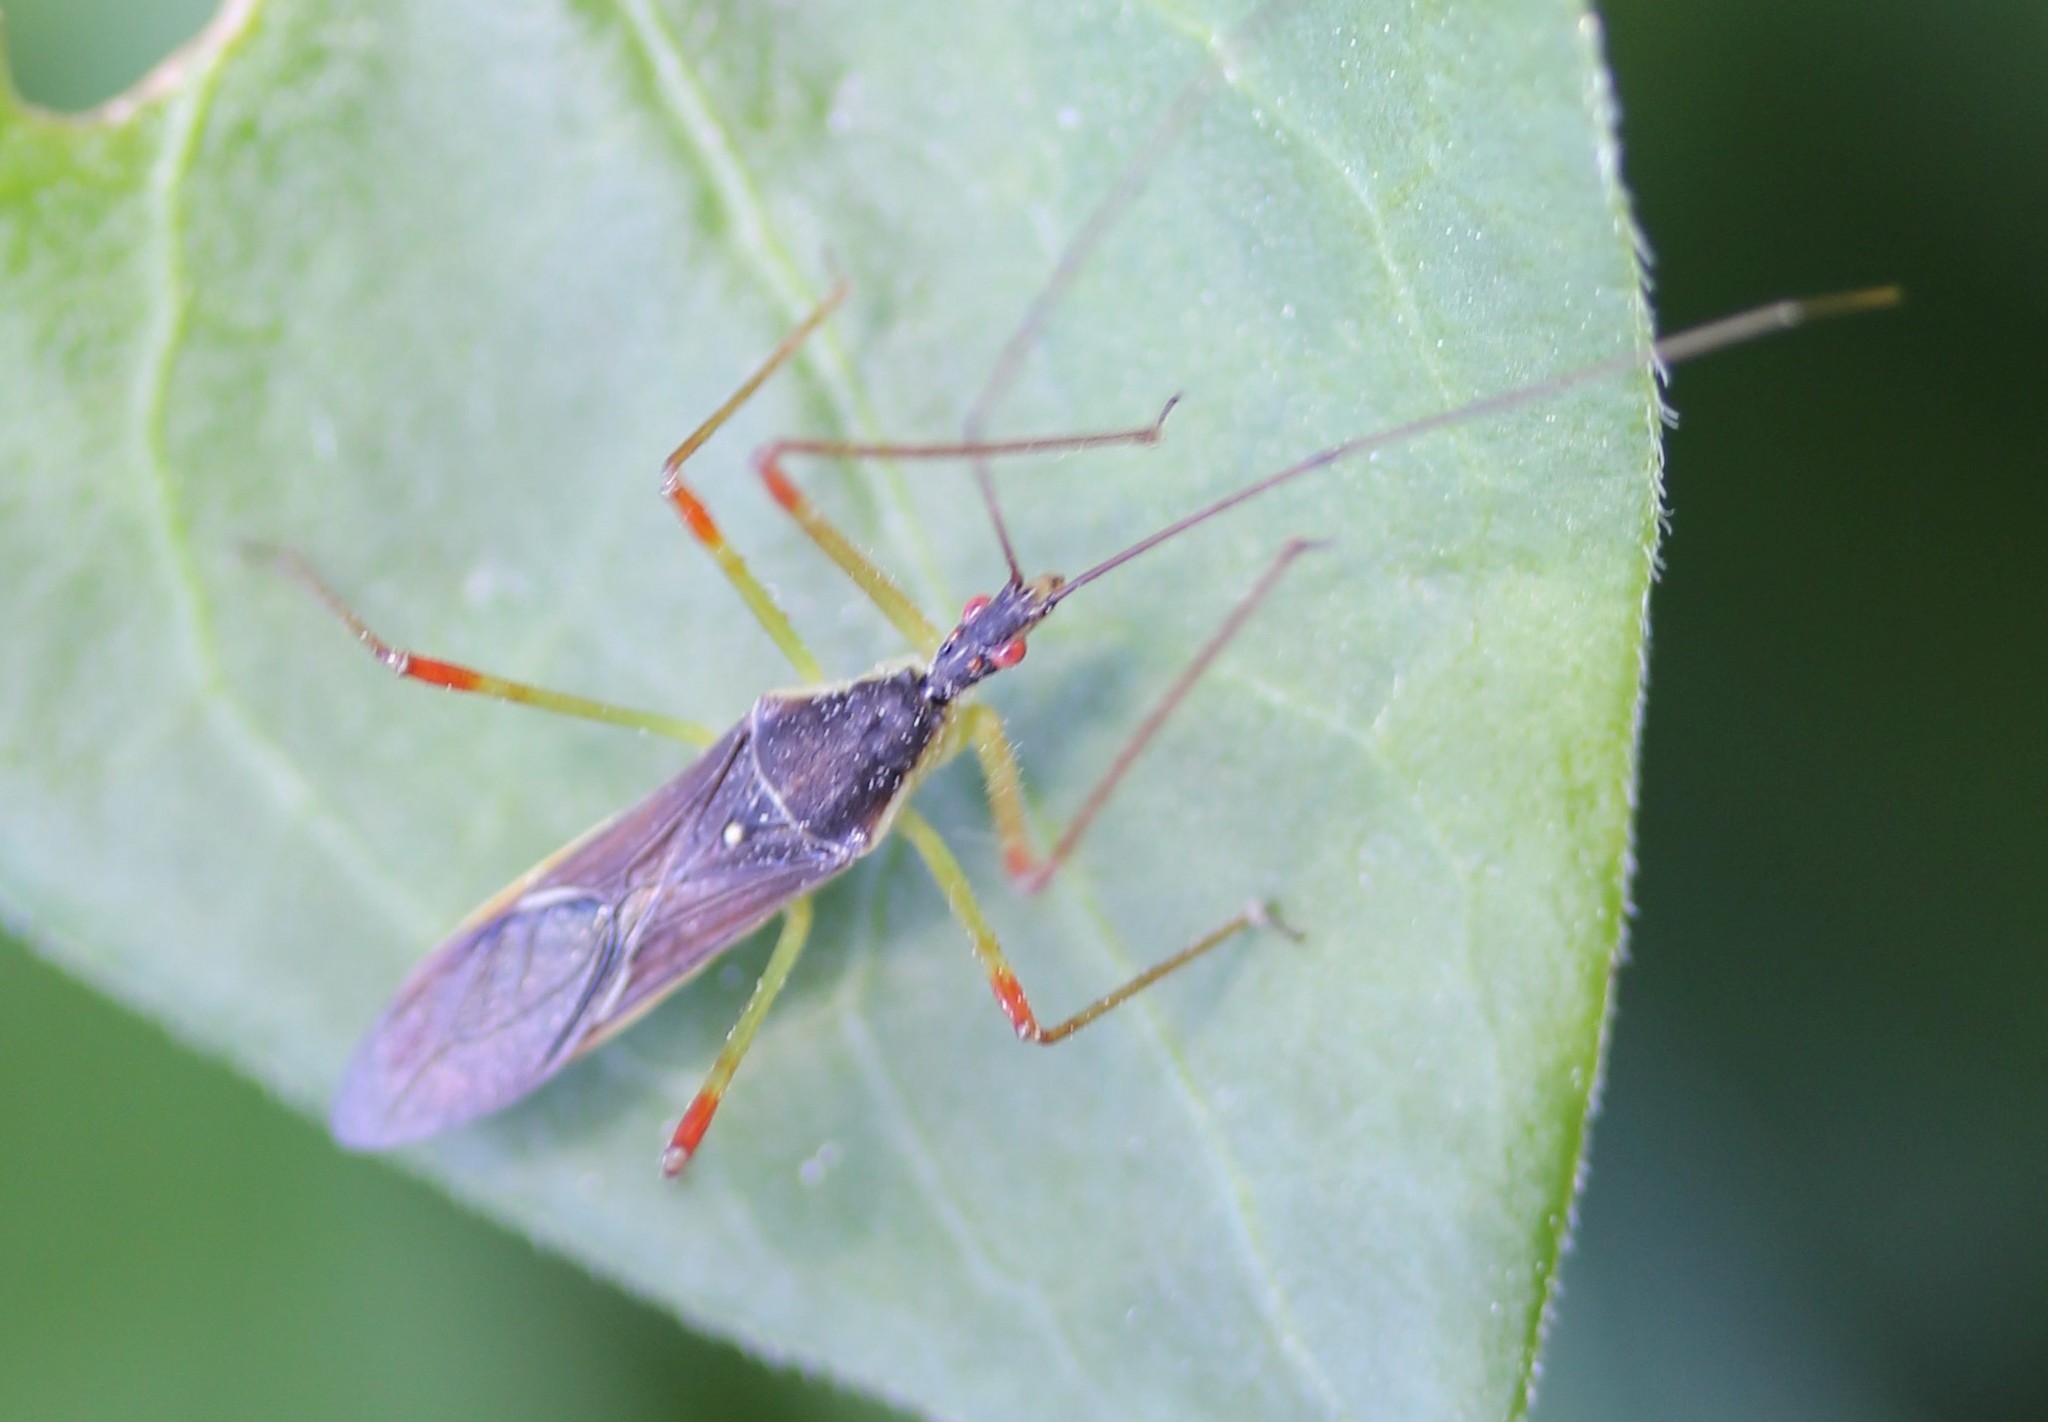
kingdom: Animalia
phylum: Arthropoda
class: Insecta
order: Hemiptera
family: Reduviidae
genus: Zelus
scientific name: Zelus luridus
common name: Pale green assassin bug
